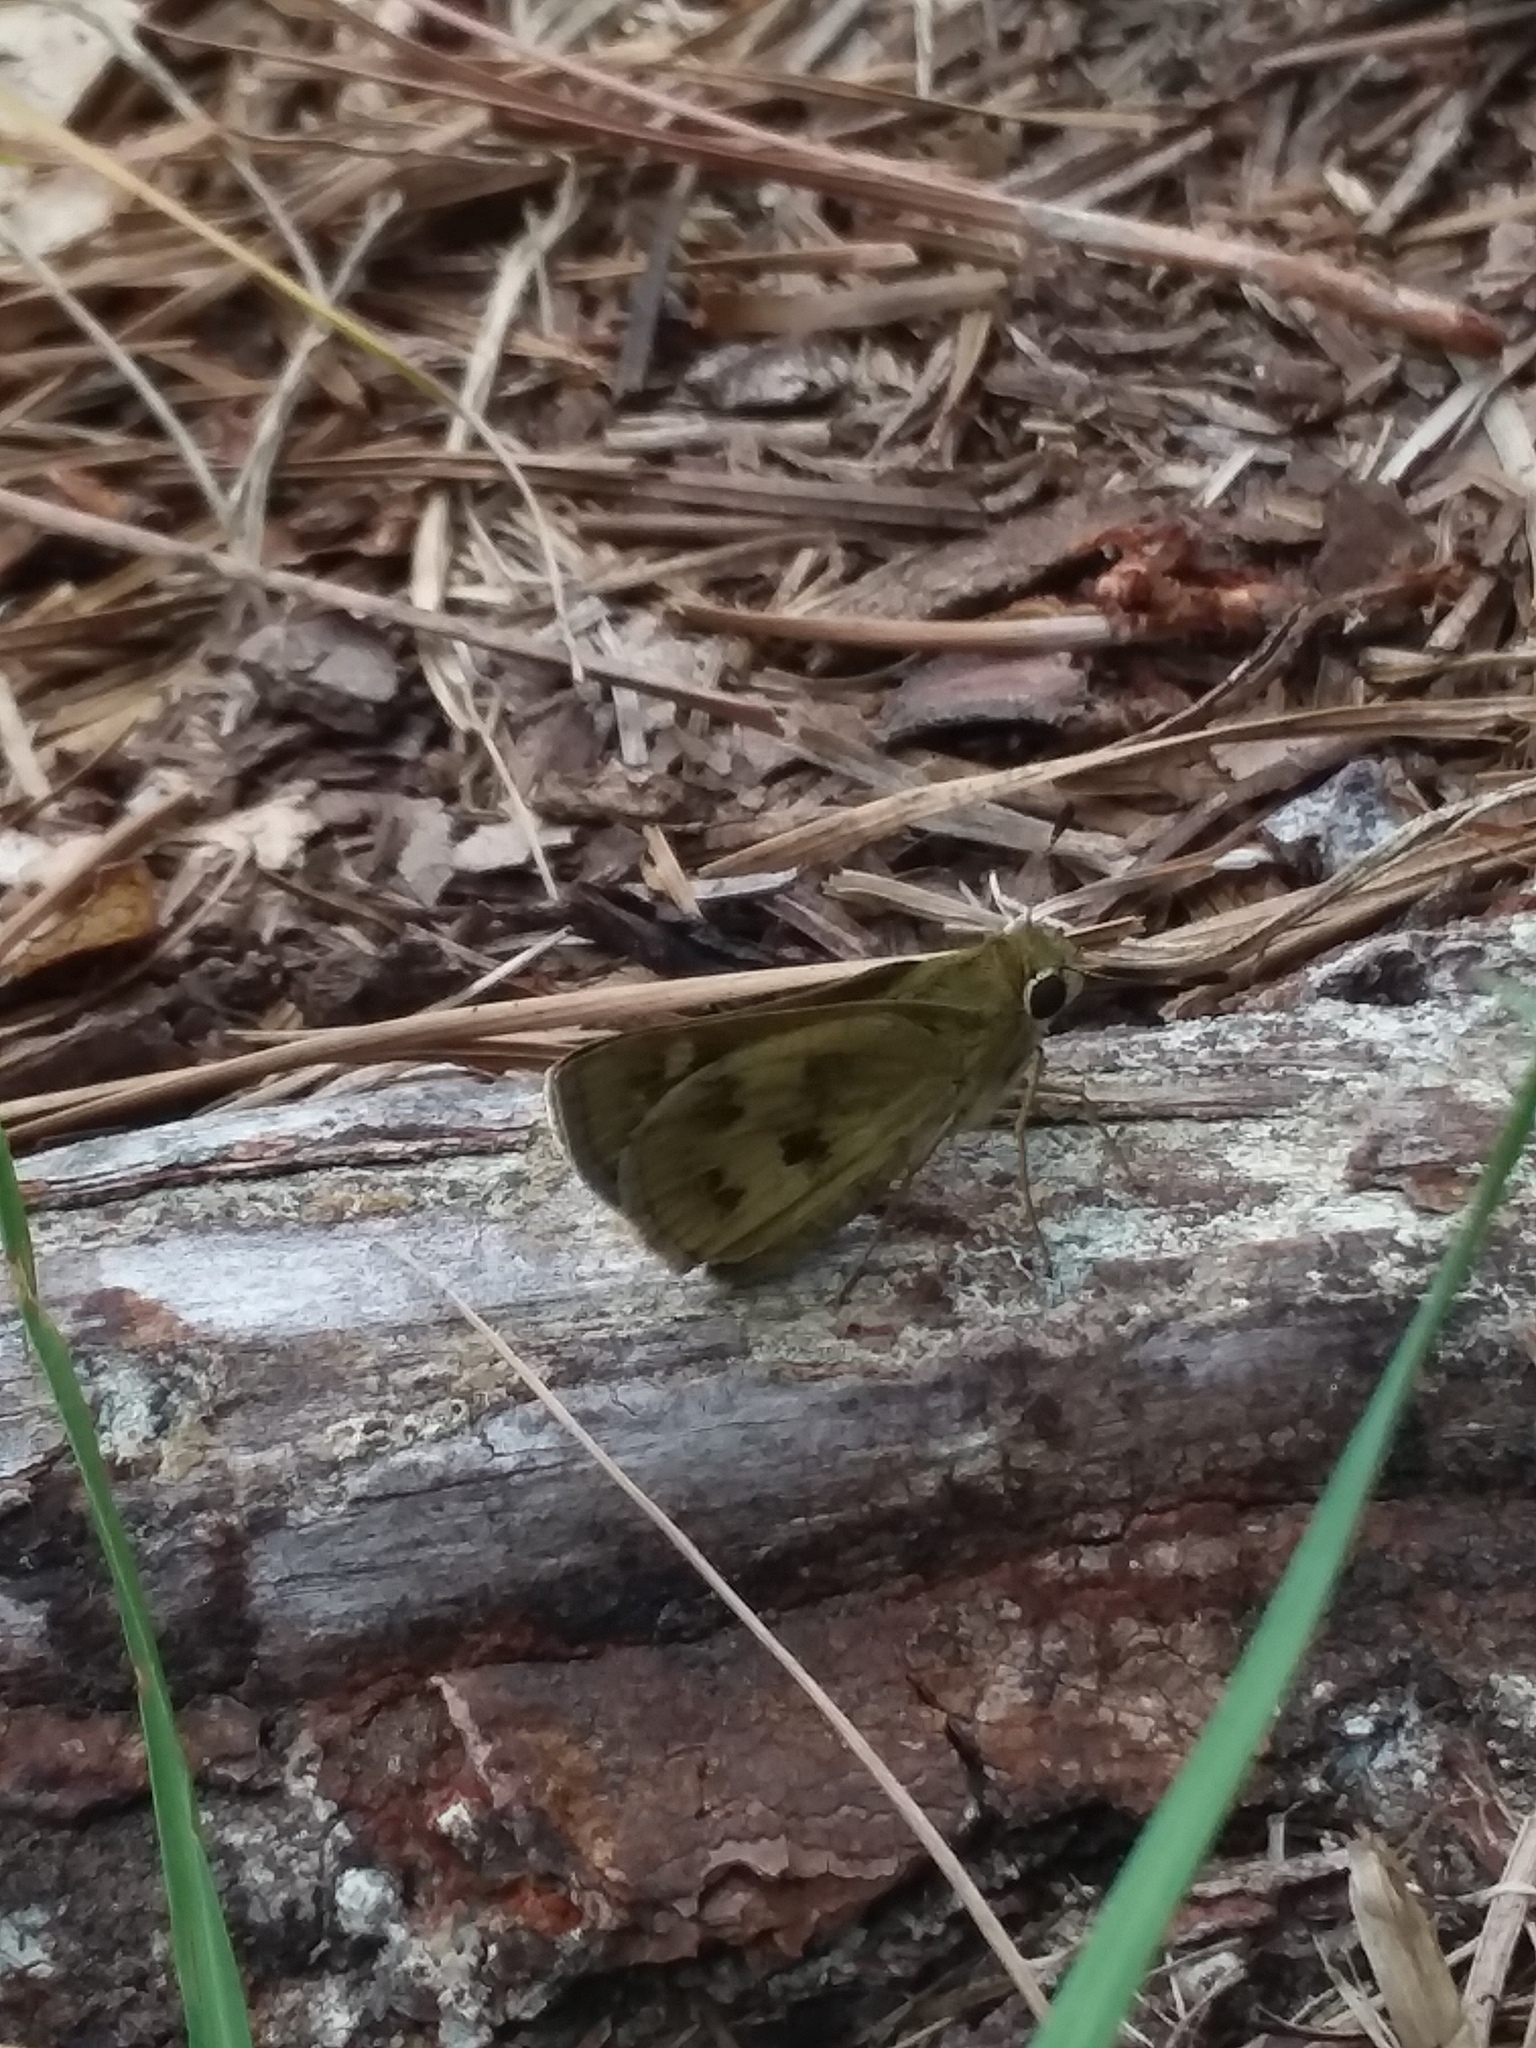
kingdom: Animalia
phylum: Arthropoda
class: Insecta
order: Lepidoptera
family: Hesperiidae
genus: Polites
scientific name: Polites vibex
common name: Whirlabout
